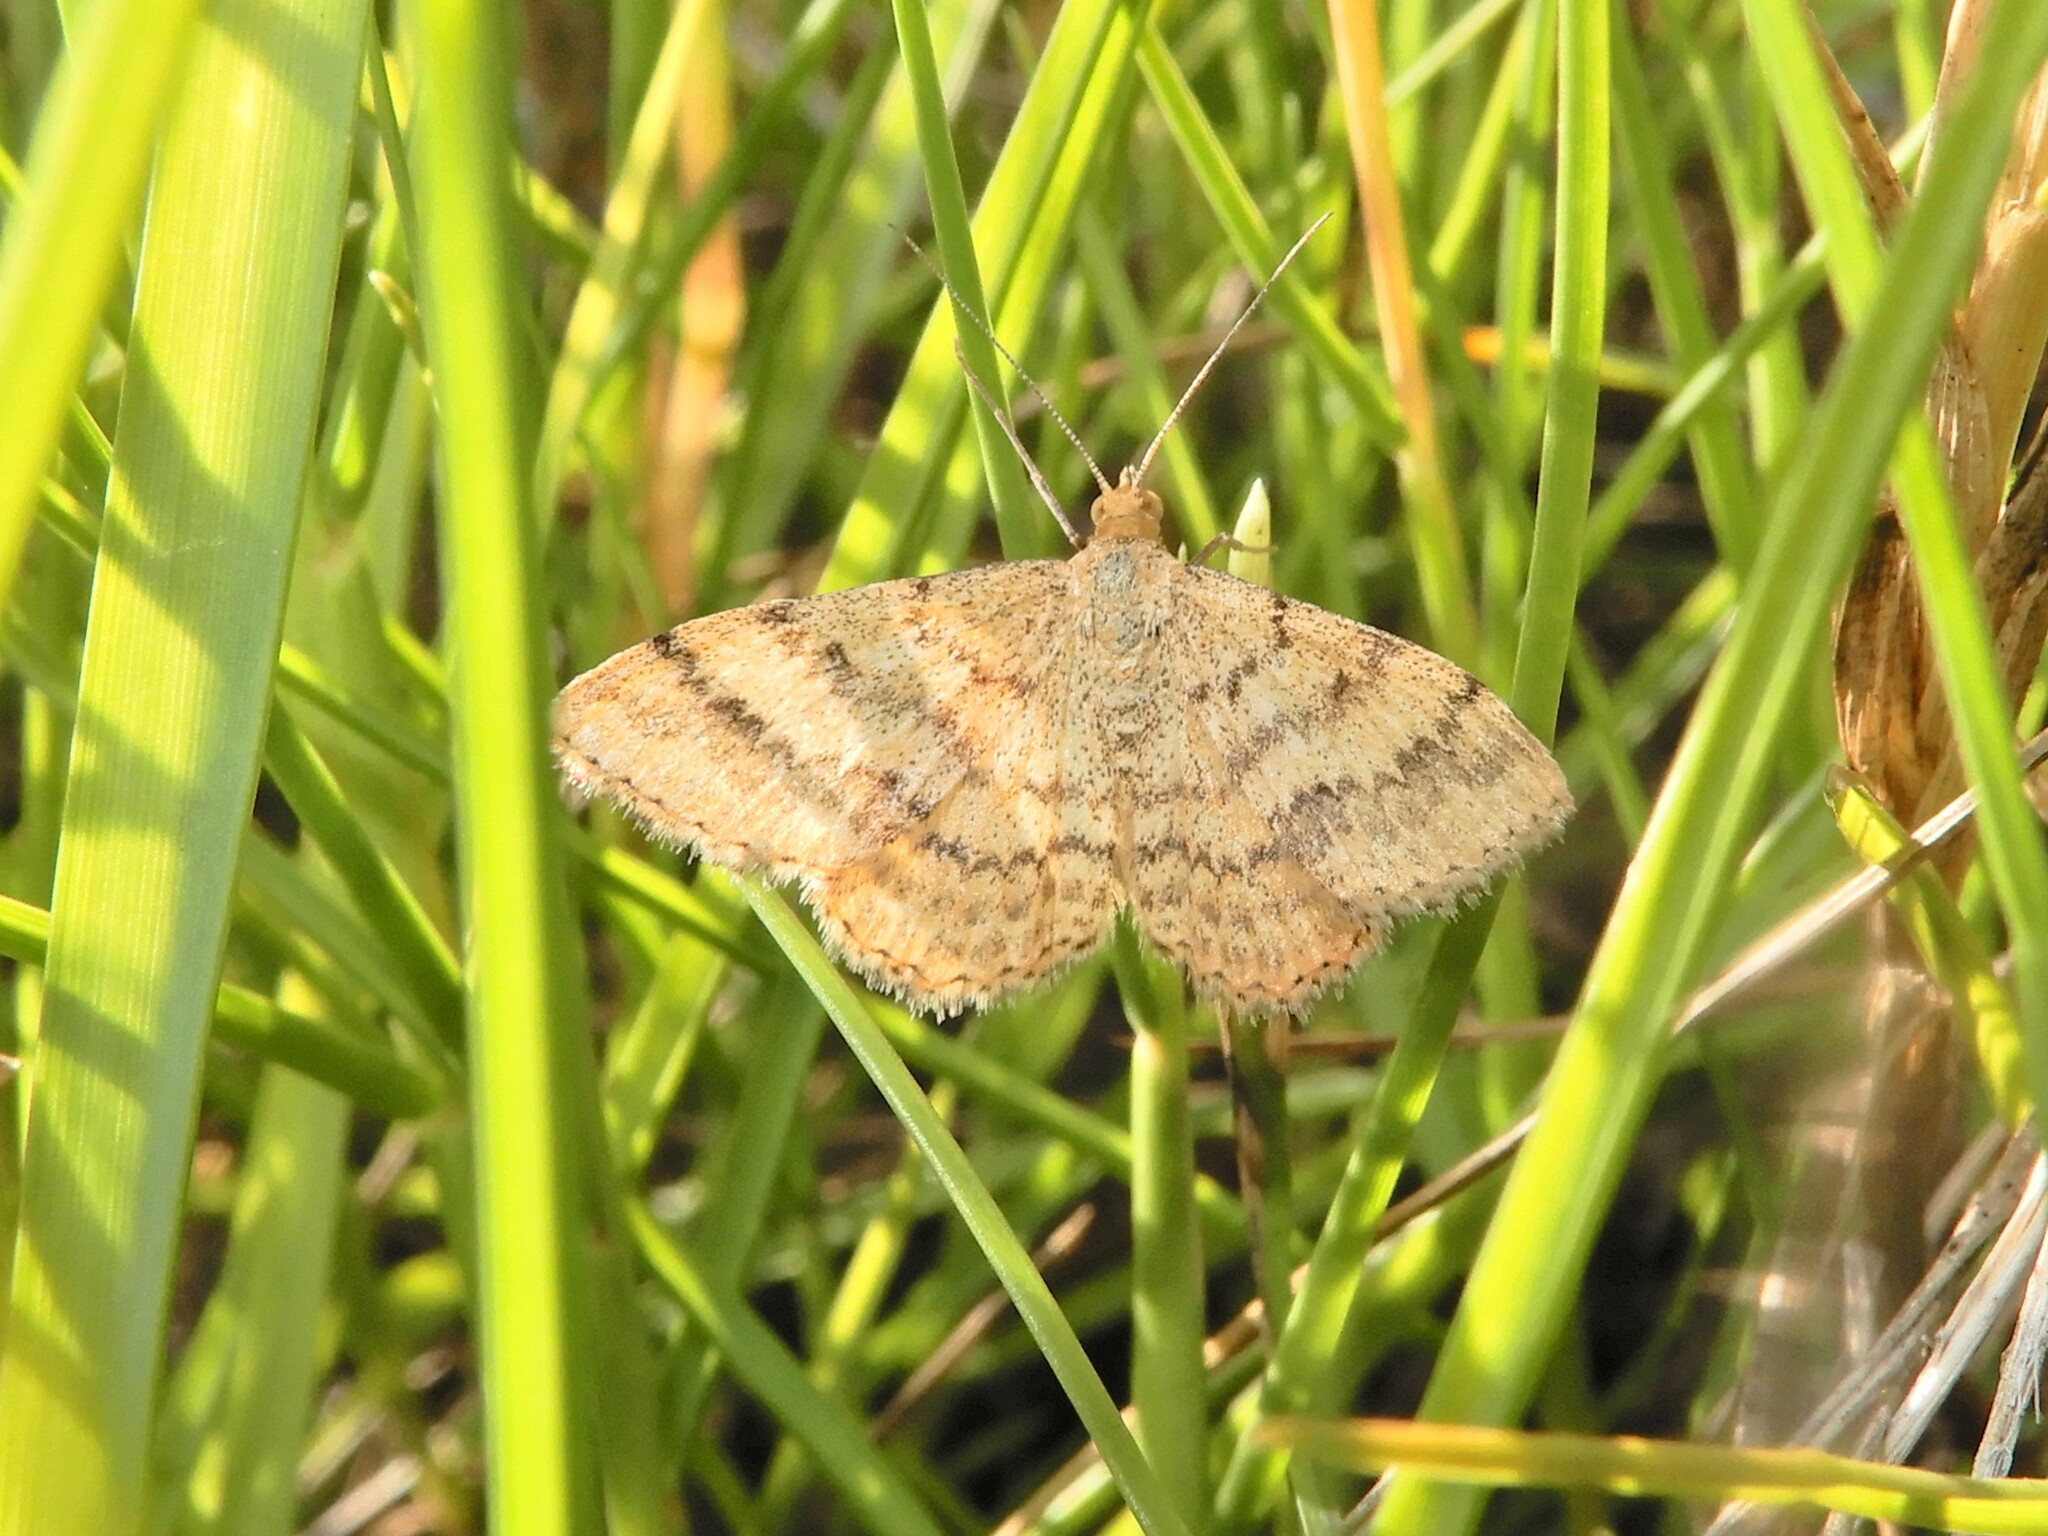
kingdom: Animalia
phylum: Arthropoda
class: Insecta
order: Lepidoptera
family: Geometridae
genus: Scopula
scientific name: Scopula rubraria
